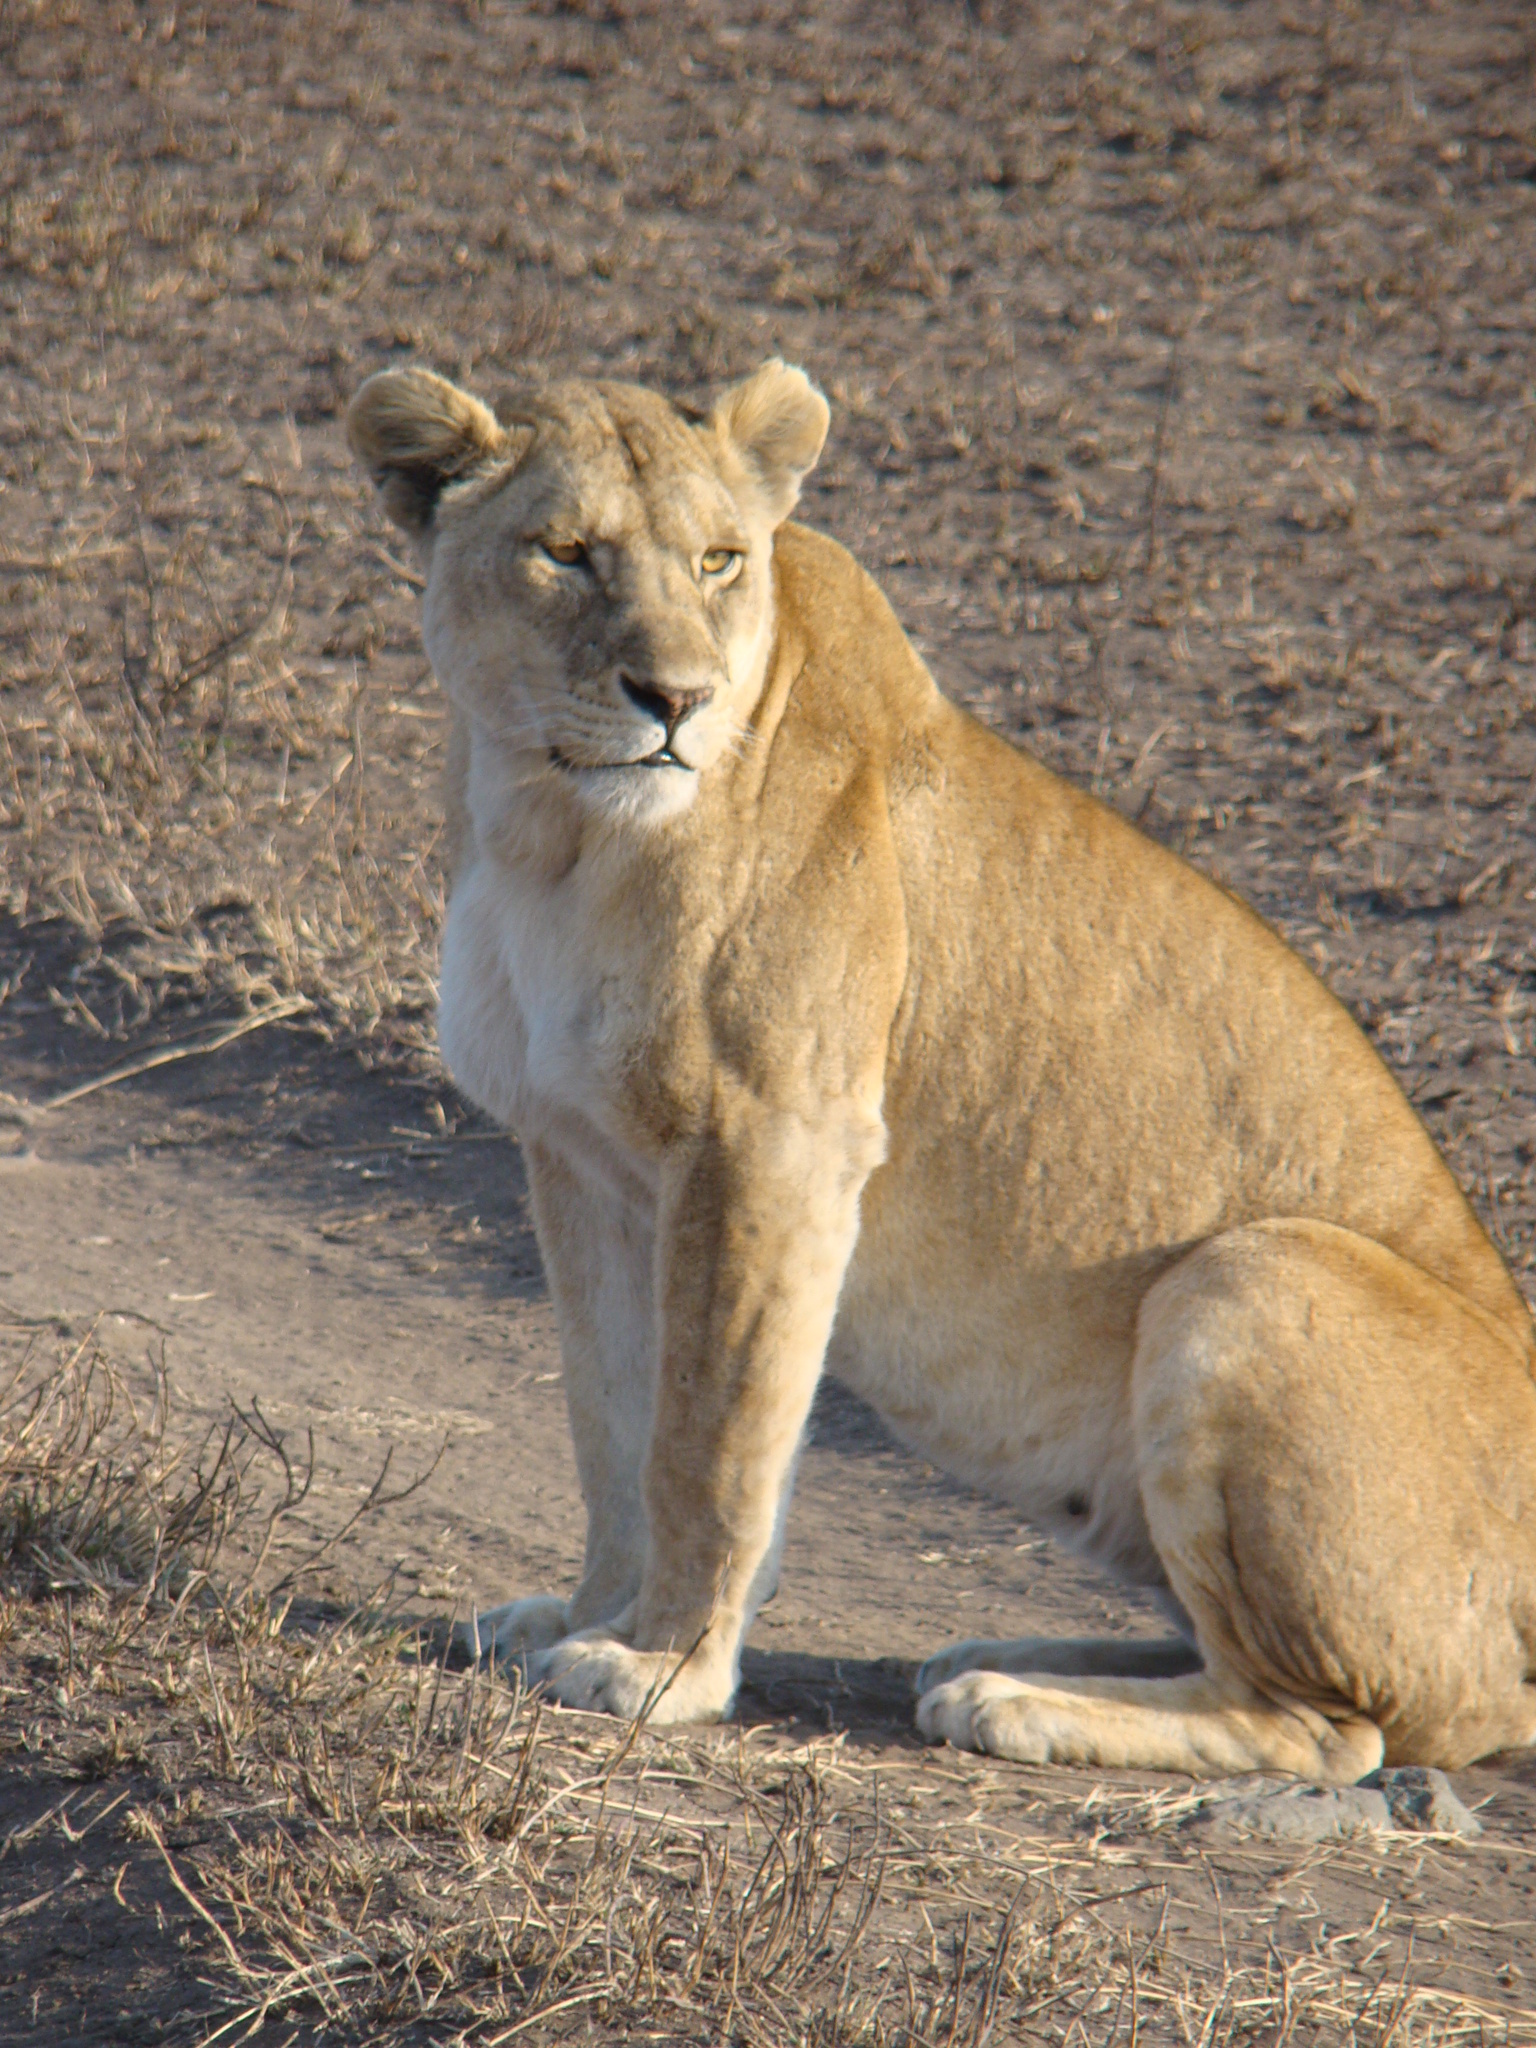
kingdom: Animalia
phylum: Chordata
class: Mammalia
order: Carnivora
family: Felidae
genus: Panthera
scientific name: Panthera leo
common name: Lion
